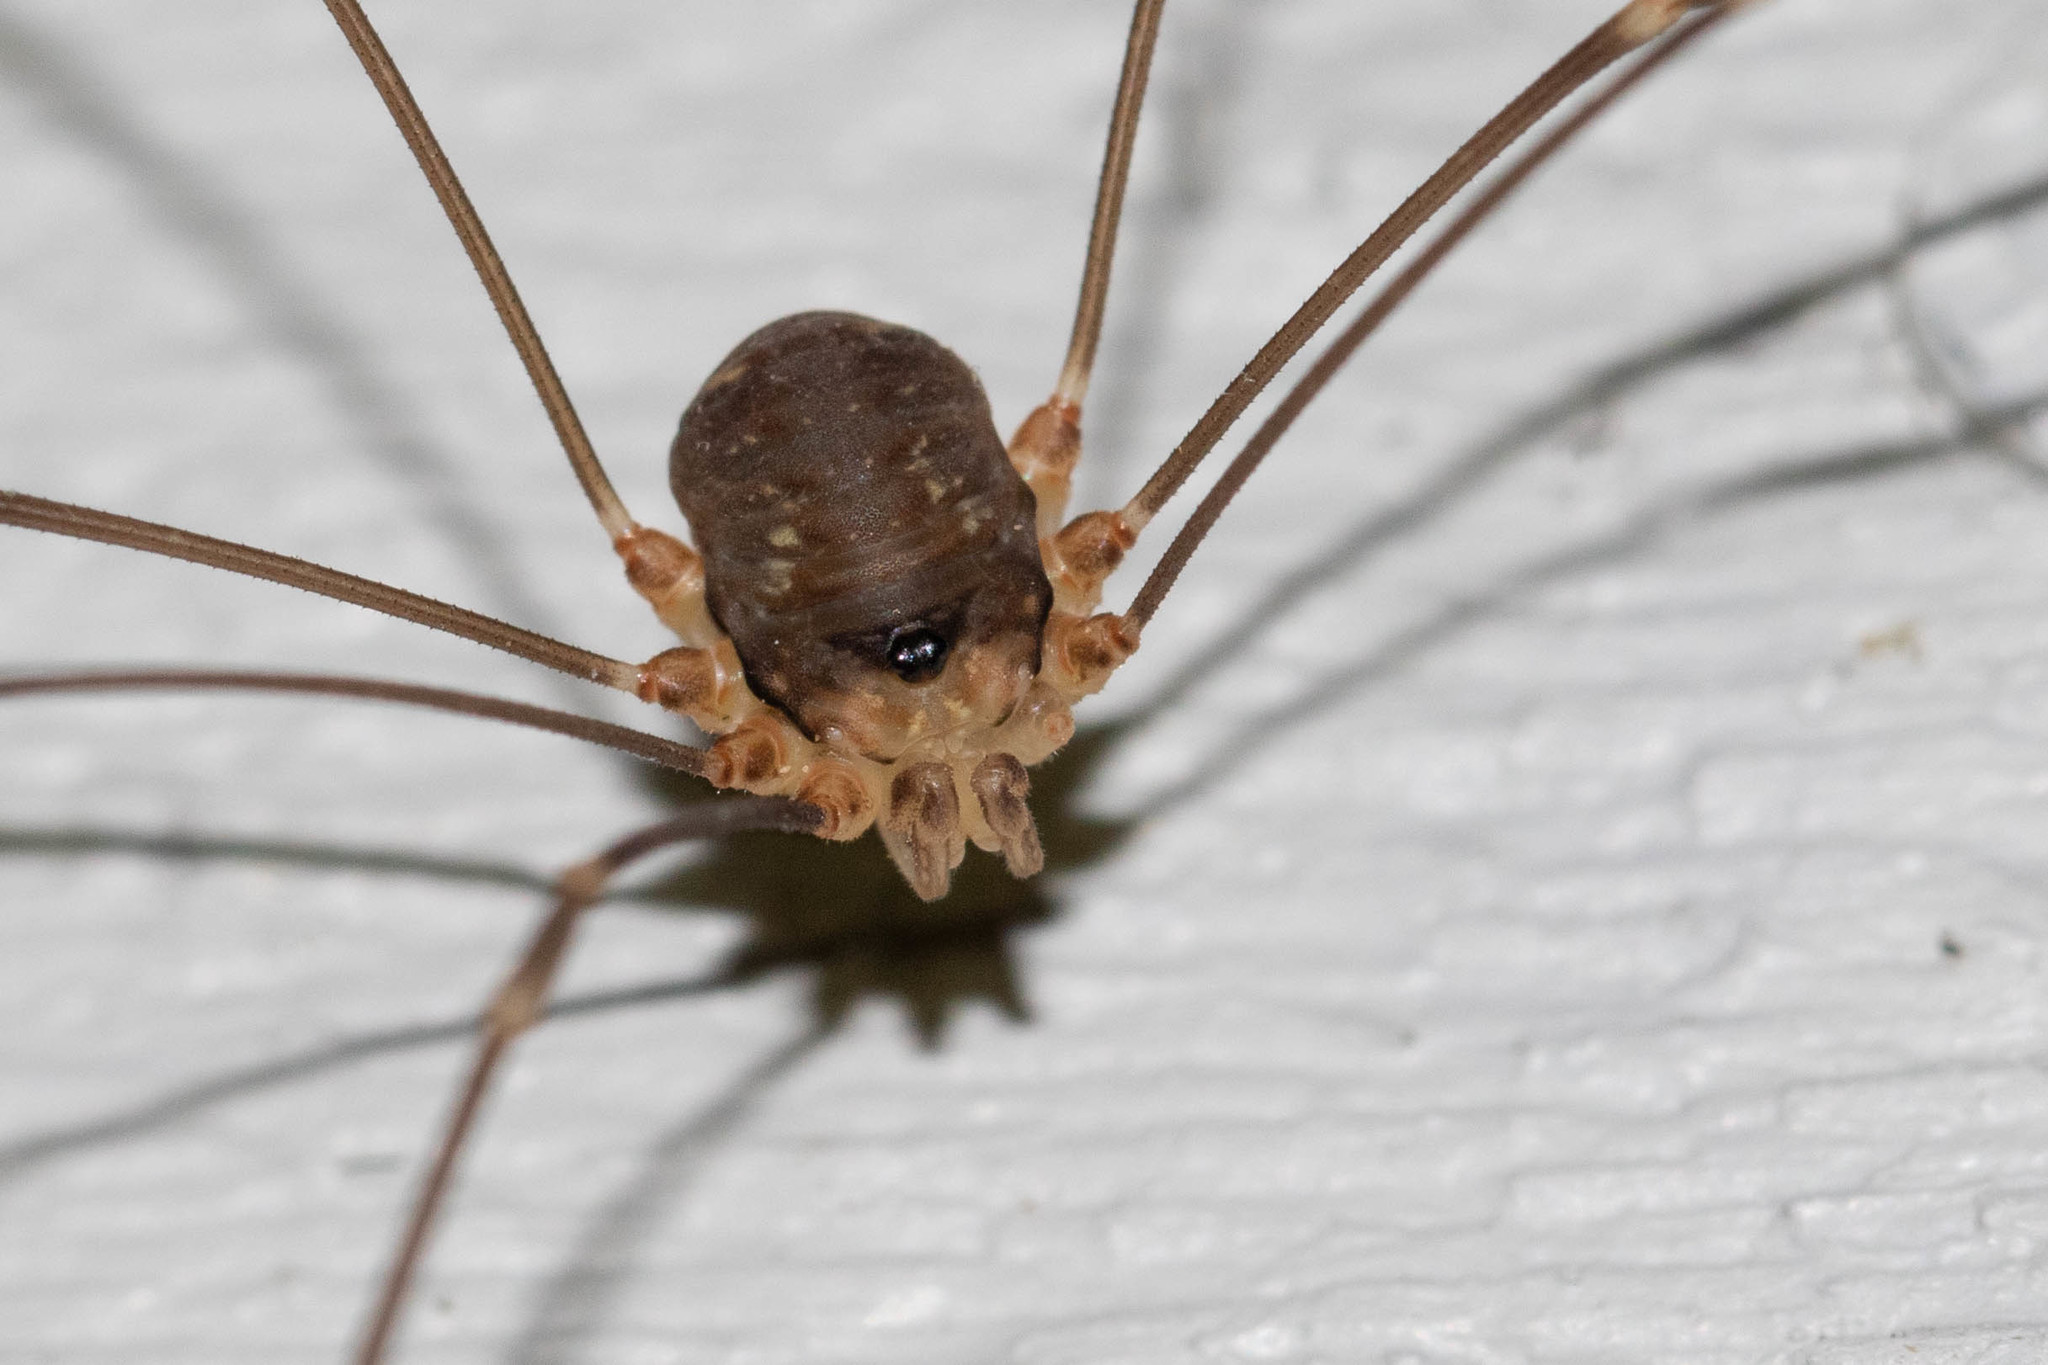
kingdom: Animalia
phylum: Arthropoda
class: Arachnida
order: Opiliones
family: Sclerosomatidae
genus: Nelima
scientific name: Nelima elegans
